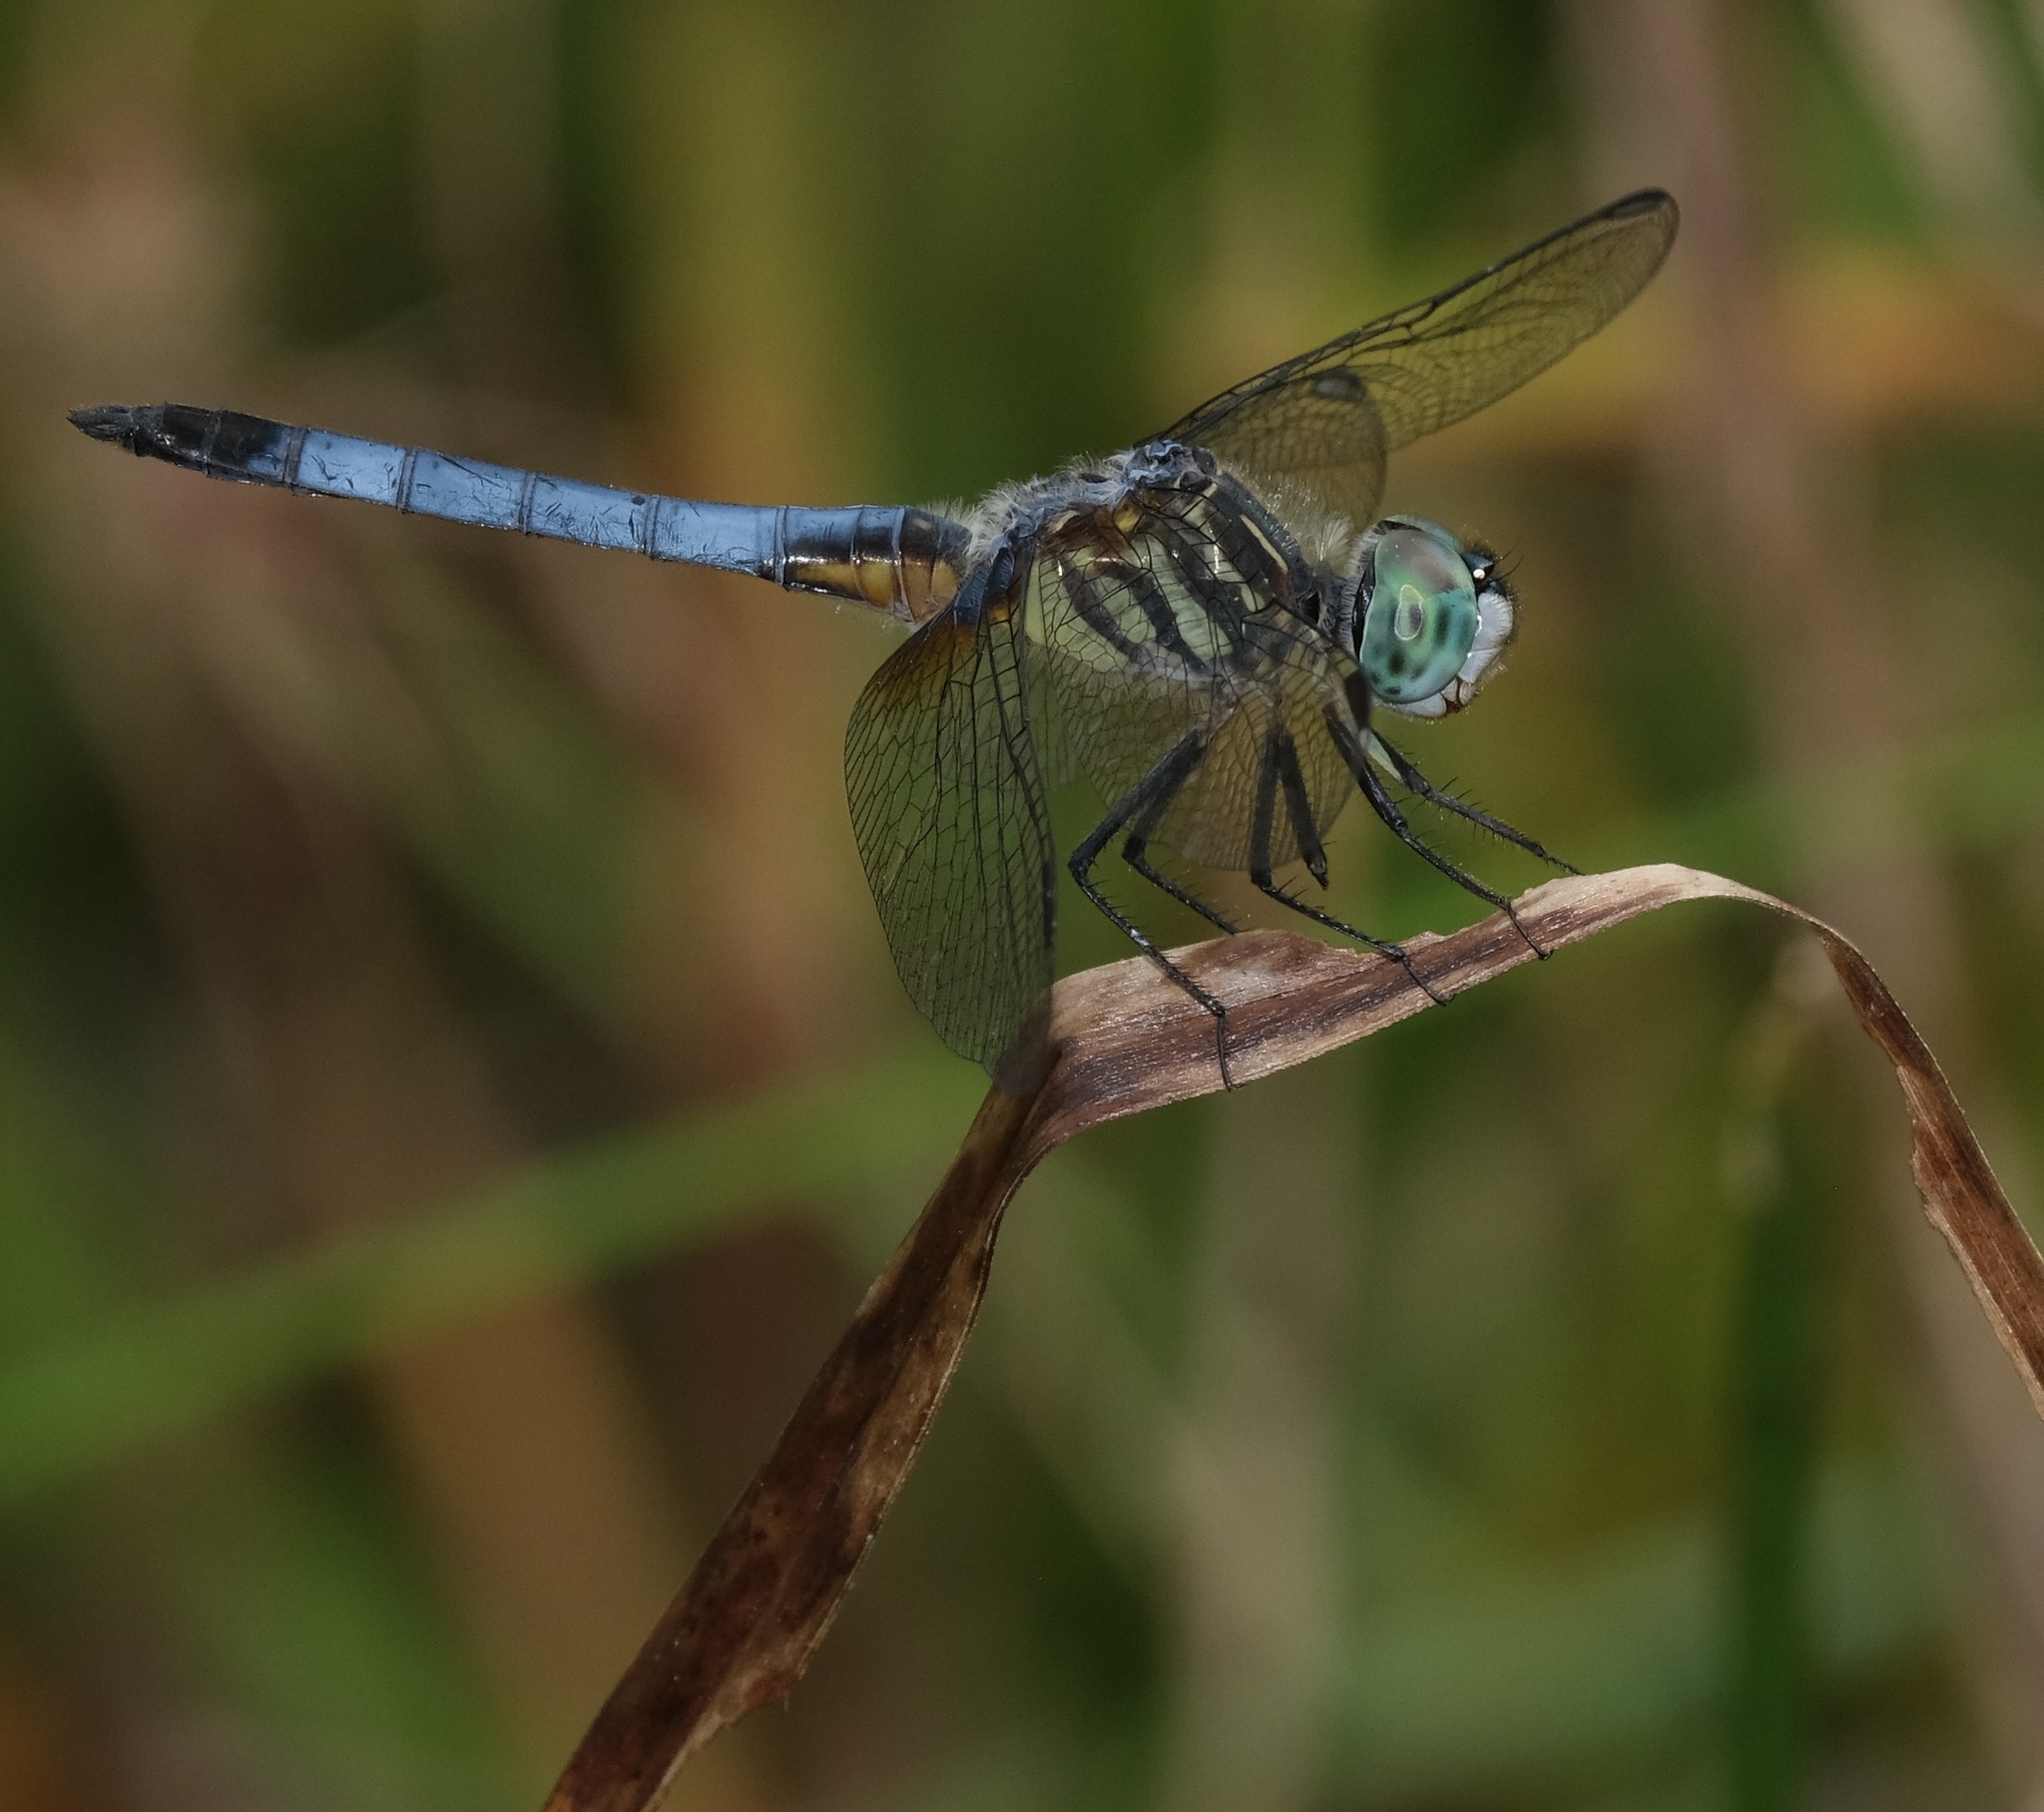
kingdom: Animalia
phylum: Arthropoda
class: Insecta
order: Odonata
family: Libellulidae
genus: Pachydiplax
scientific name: Pachydiplax longipennis
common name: Blue dasher
